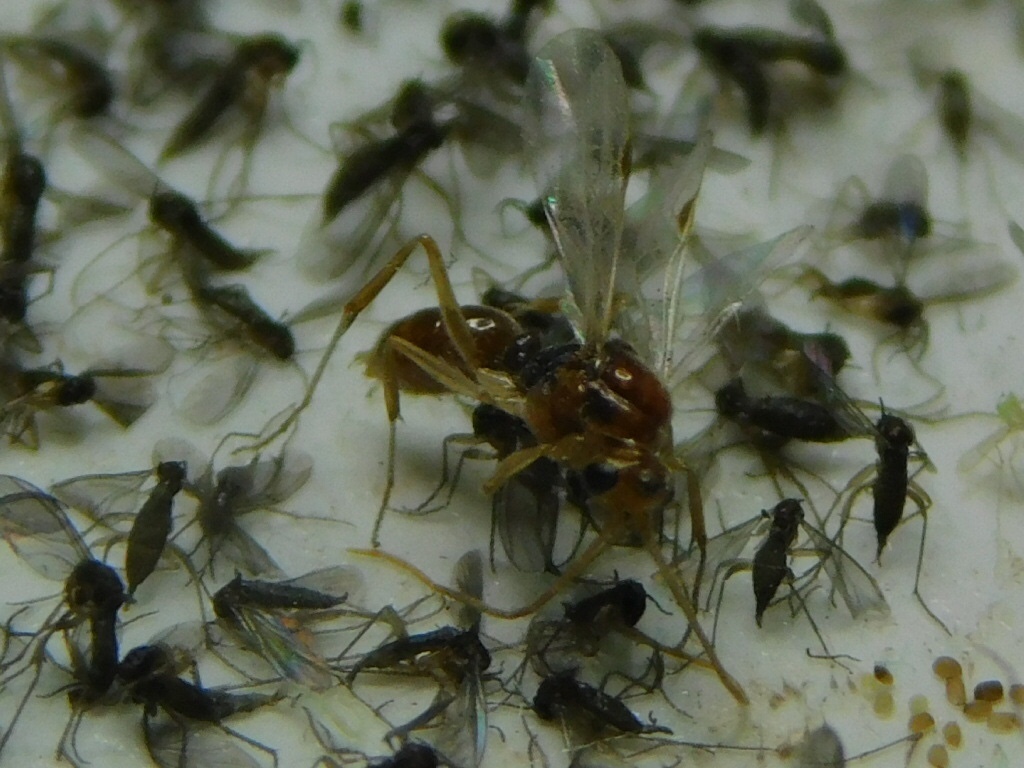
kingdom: Animalia
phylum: Arthropoda
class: Insecta
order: Hymenoptera
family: Formicidae
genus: Odontomachus
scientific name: Odontomachus ruginodis
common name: Trapjaw ant
